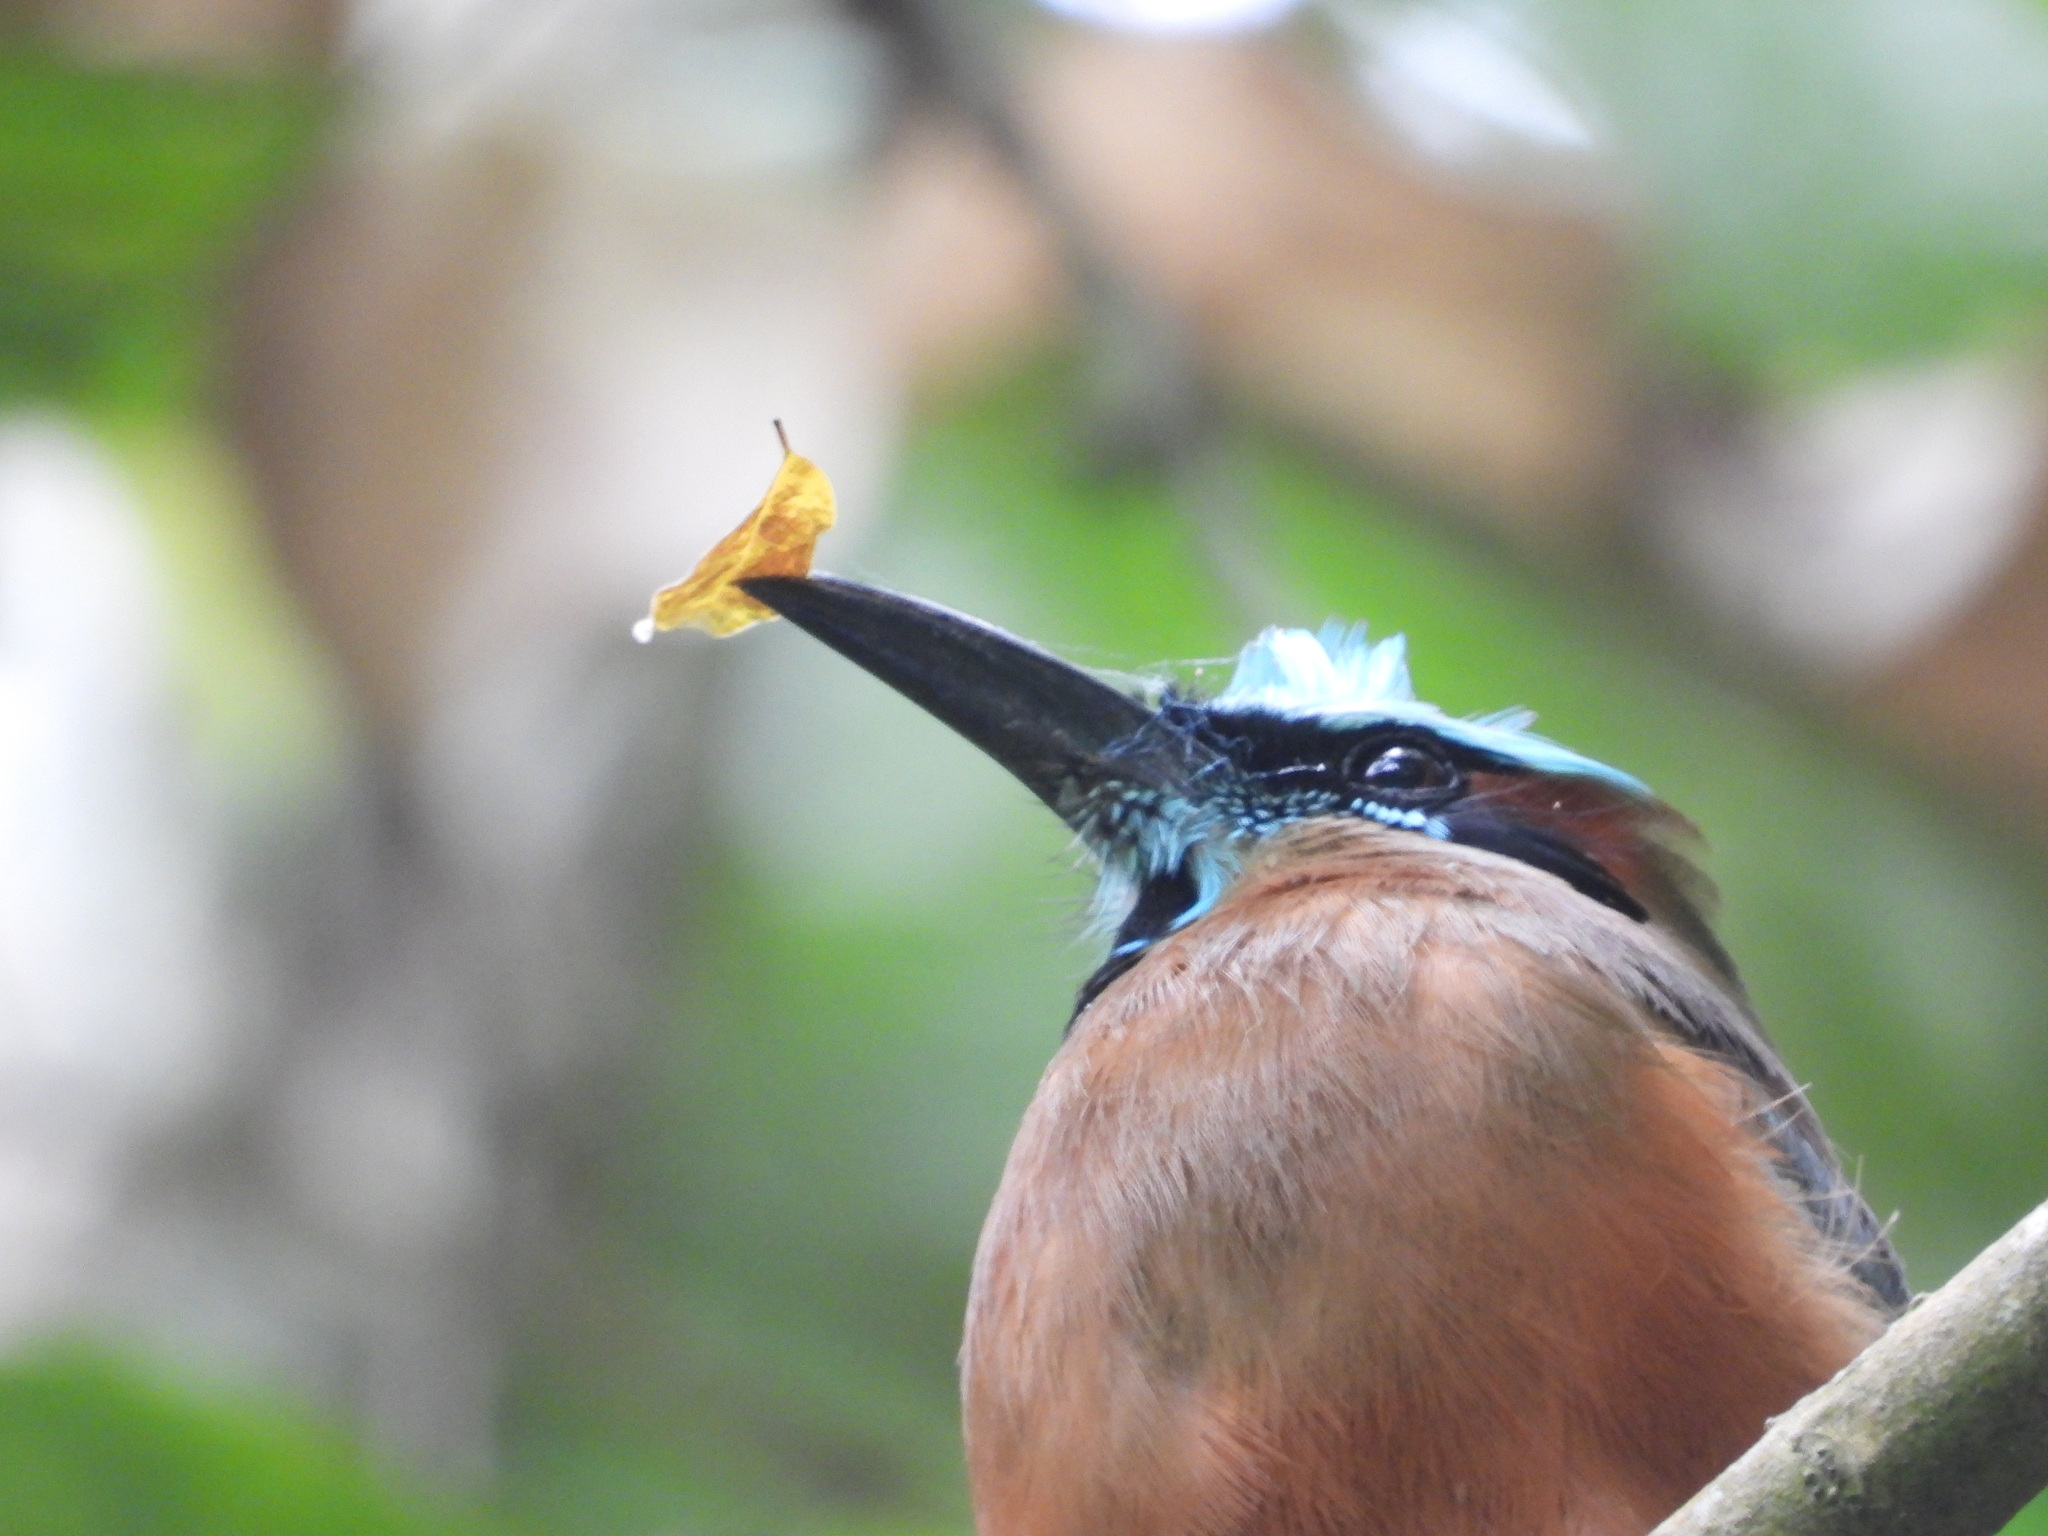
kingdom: Animalia
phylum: Chordata
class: Aves
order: Coraciiformes
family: Momotidae
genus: Eumomota
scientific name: Eumomota superciliosa
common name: Turquoise-browed motmot
